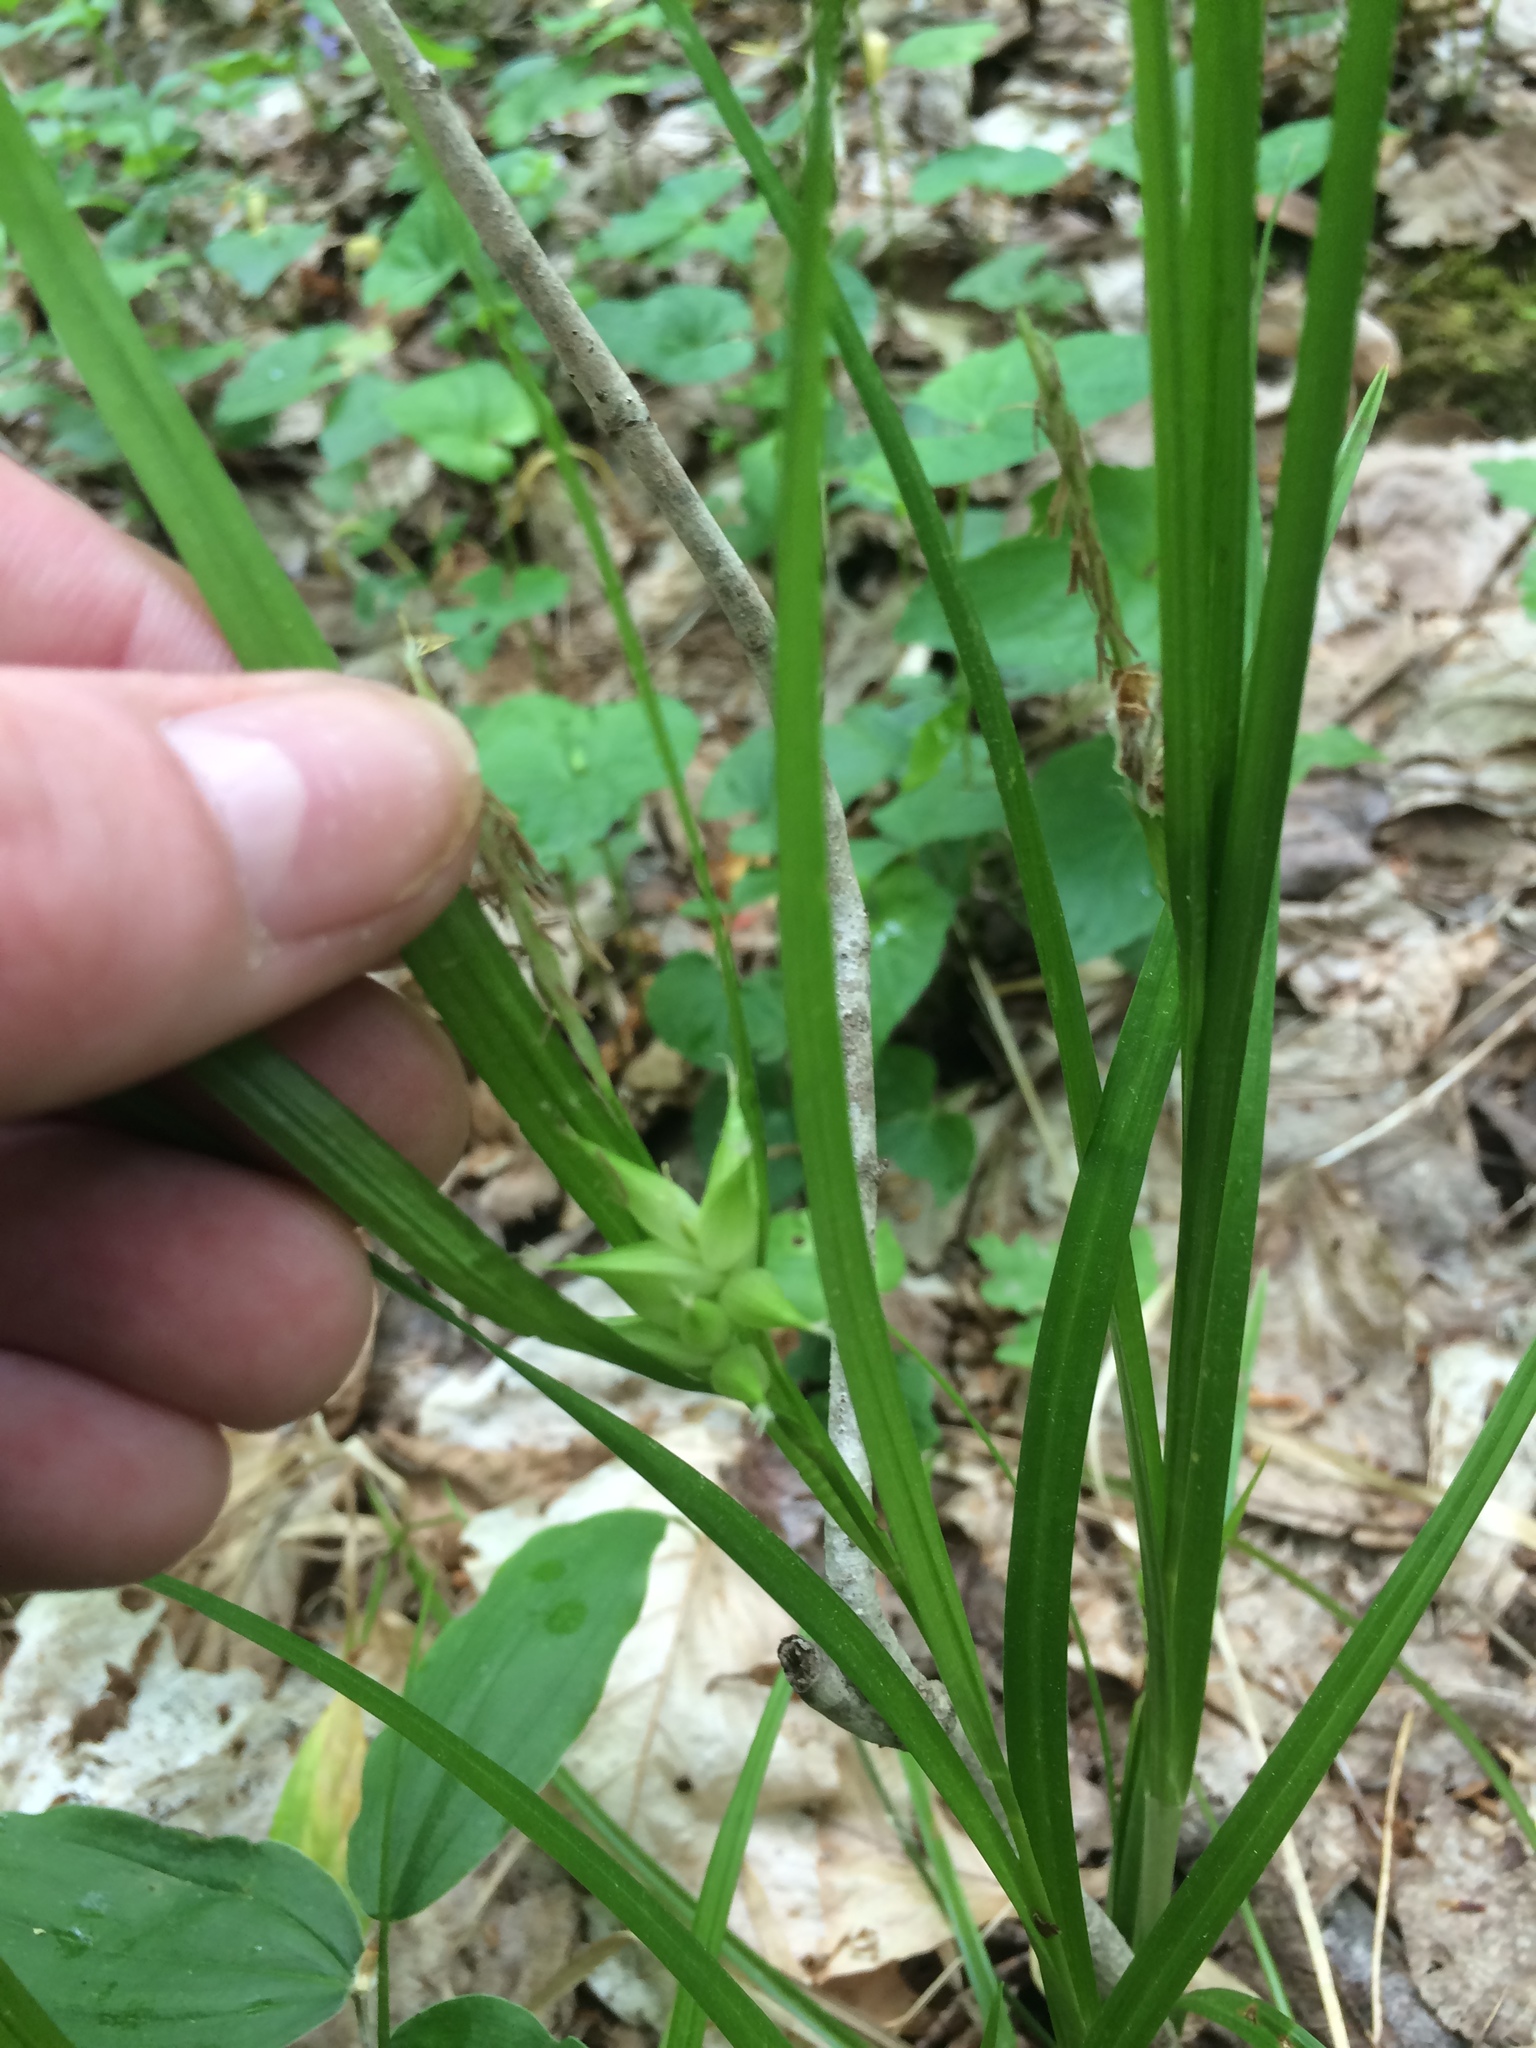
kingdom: Plantae
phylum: Tracheophyta
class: Liliopsida
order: Poales
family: Cyperaceae
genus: Carex
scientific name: Carex intumescens
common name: Greater bladder sedge
